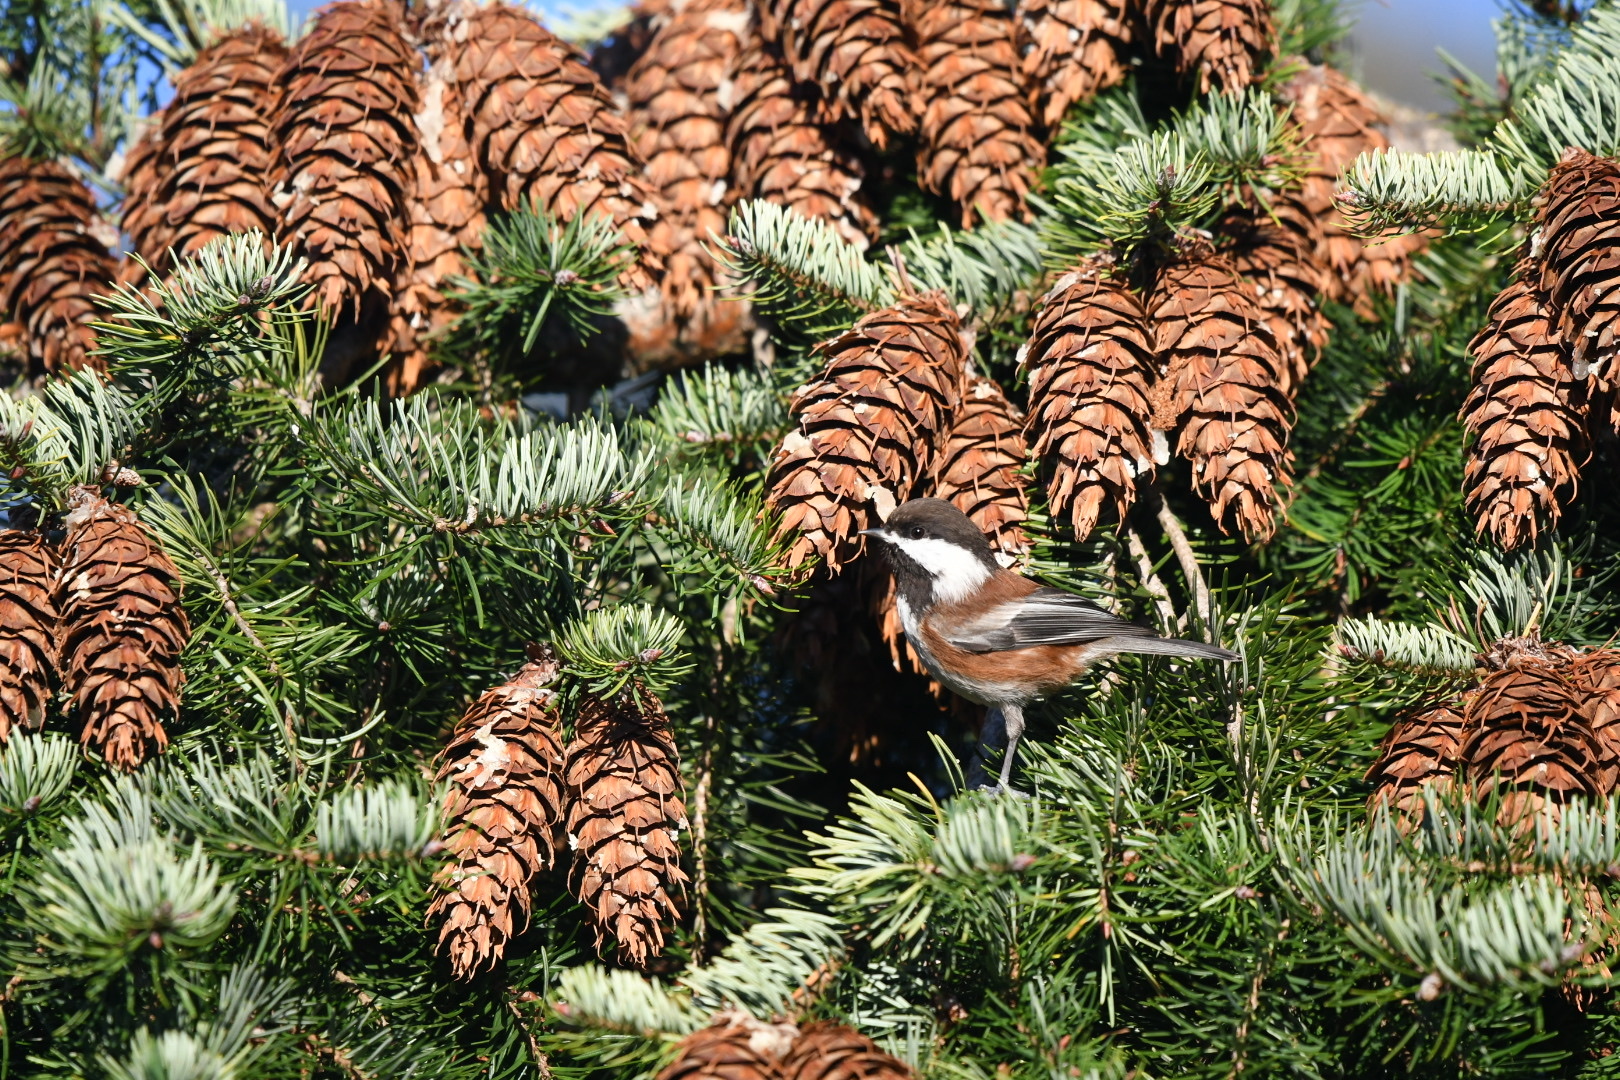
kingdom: Animalia
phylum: Chordata
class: Aves
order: Passeriformes
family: Paridae
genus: Poecile
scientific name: Poecile rufescens
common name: Chestnut-backed chickadee
